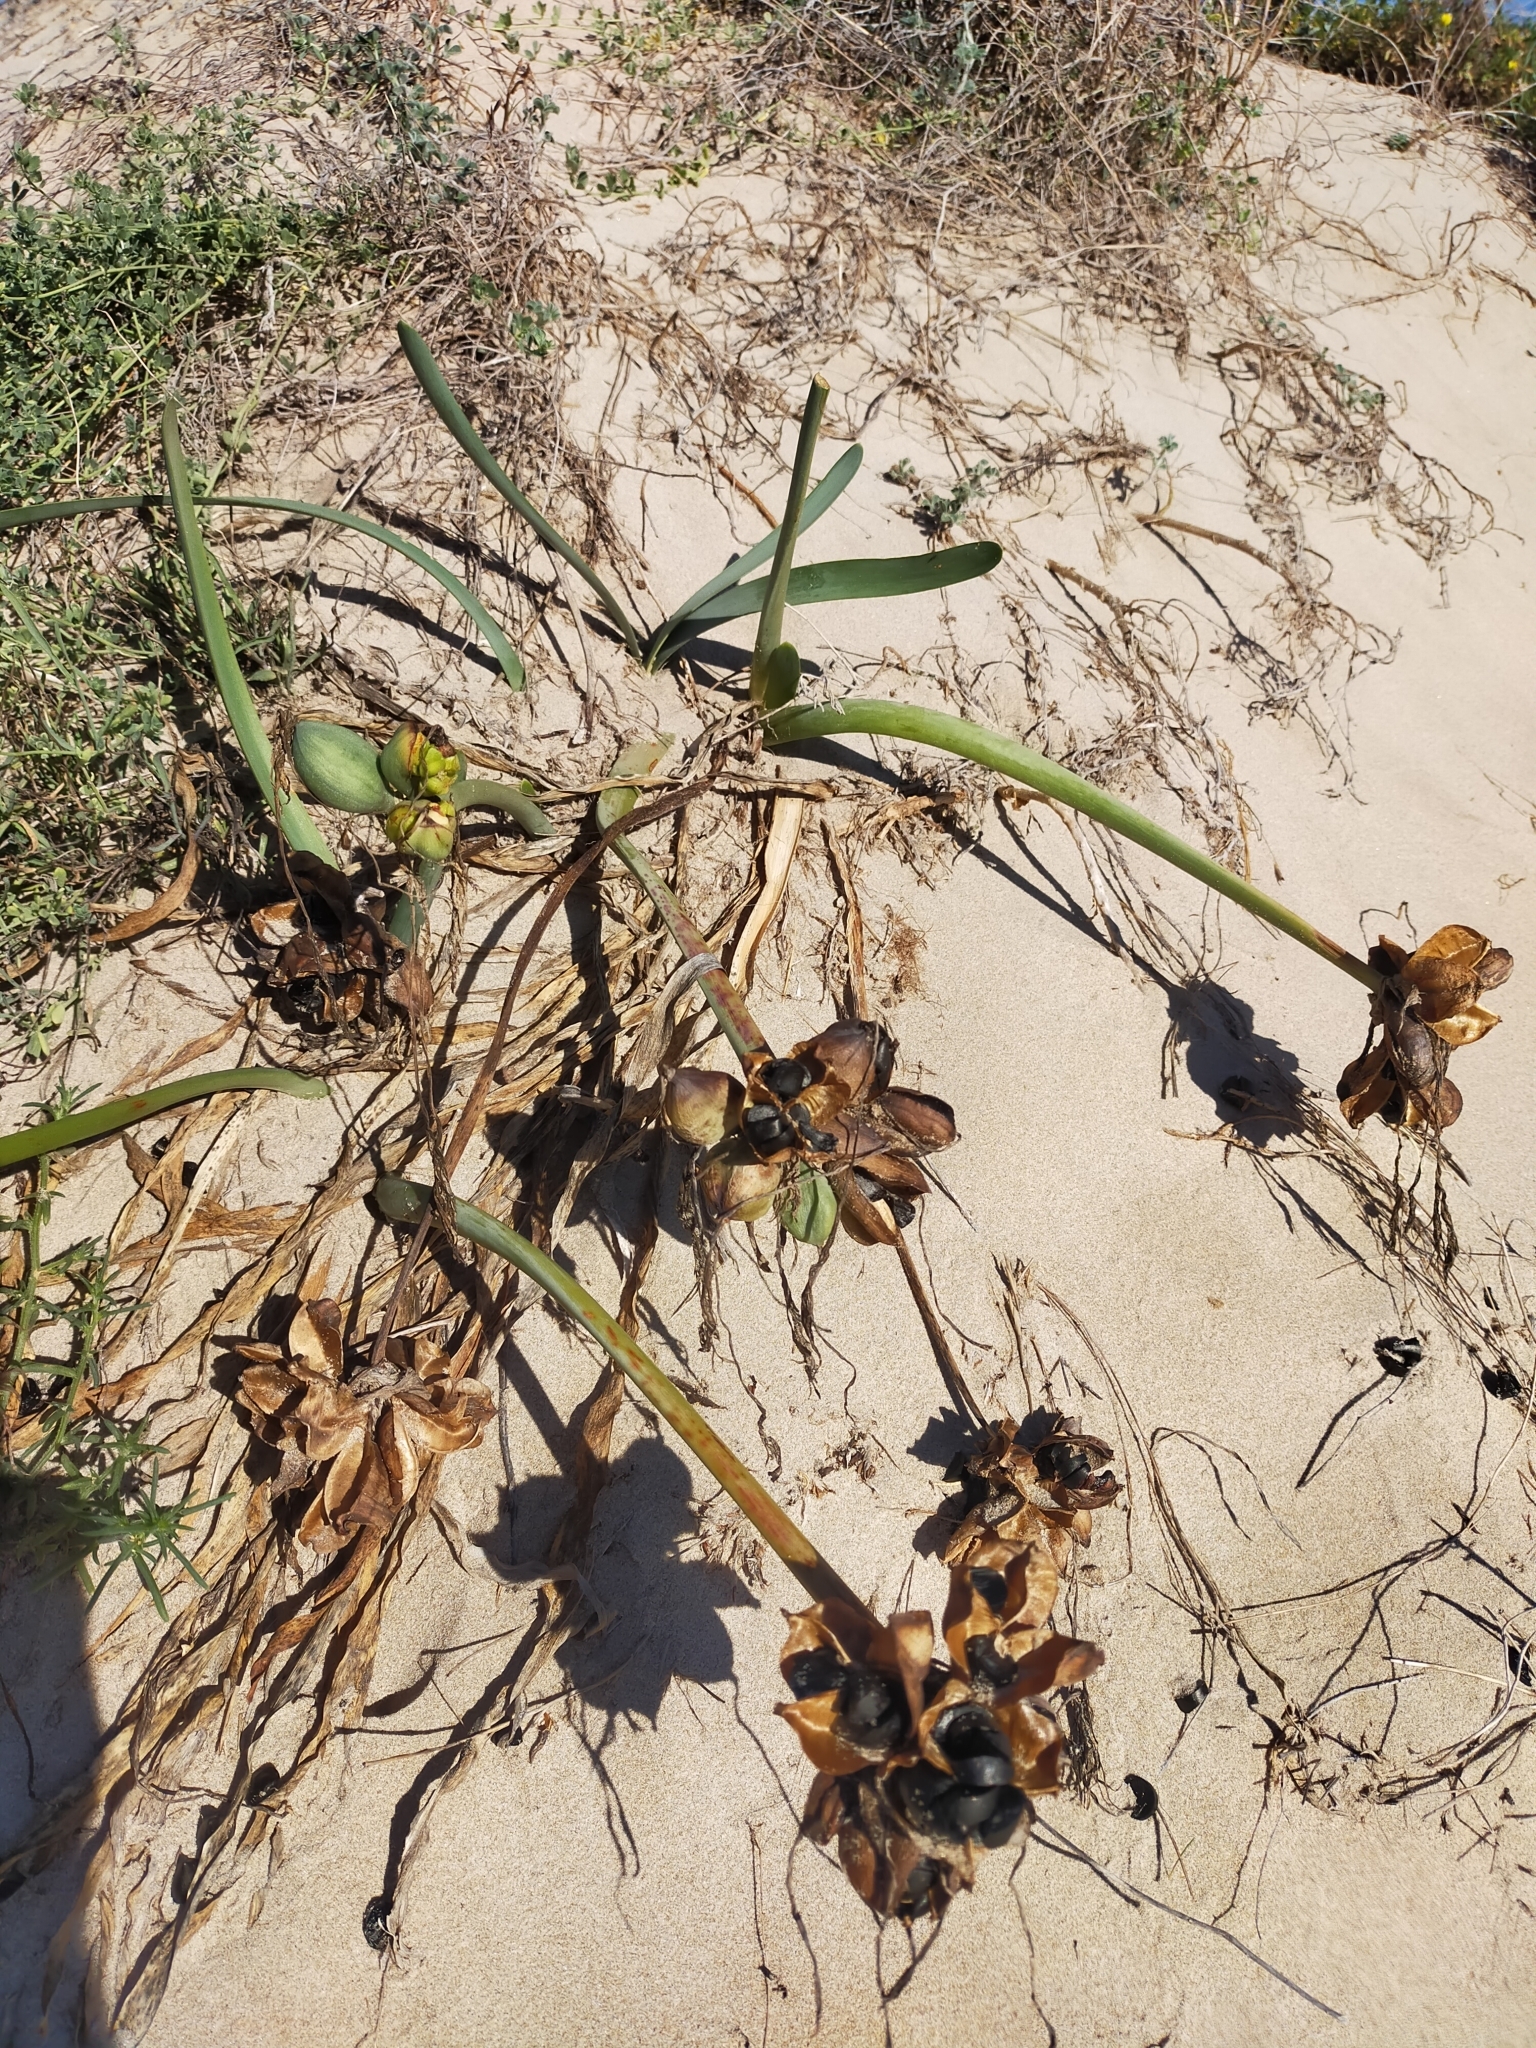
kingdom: Plantae
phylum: Tracheophyta
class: Liliopsida
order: Asparagales
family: Amaryllidaceae
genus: Pancratium
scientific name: Pancratium maritimum
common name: Sea-daffodil
